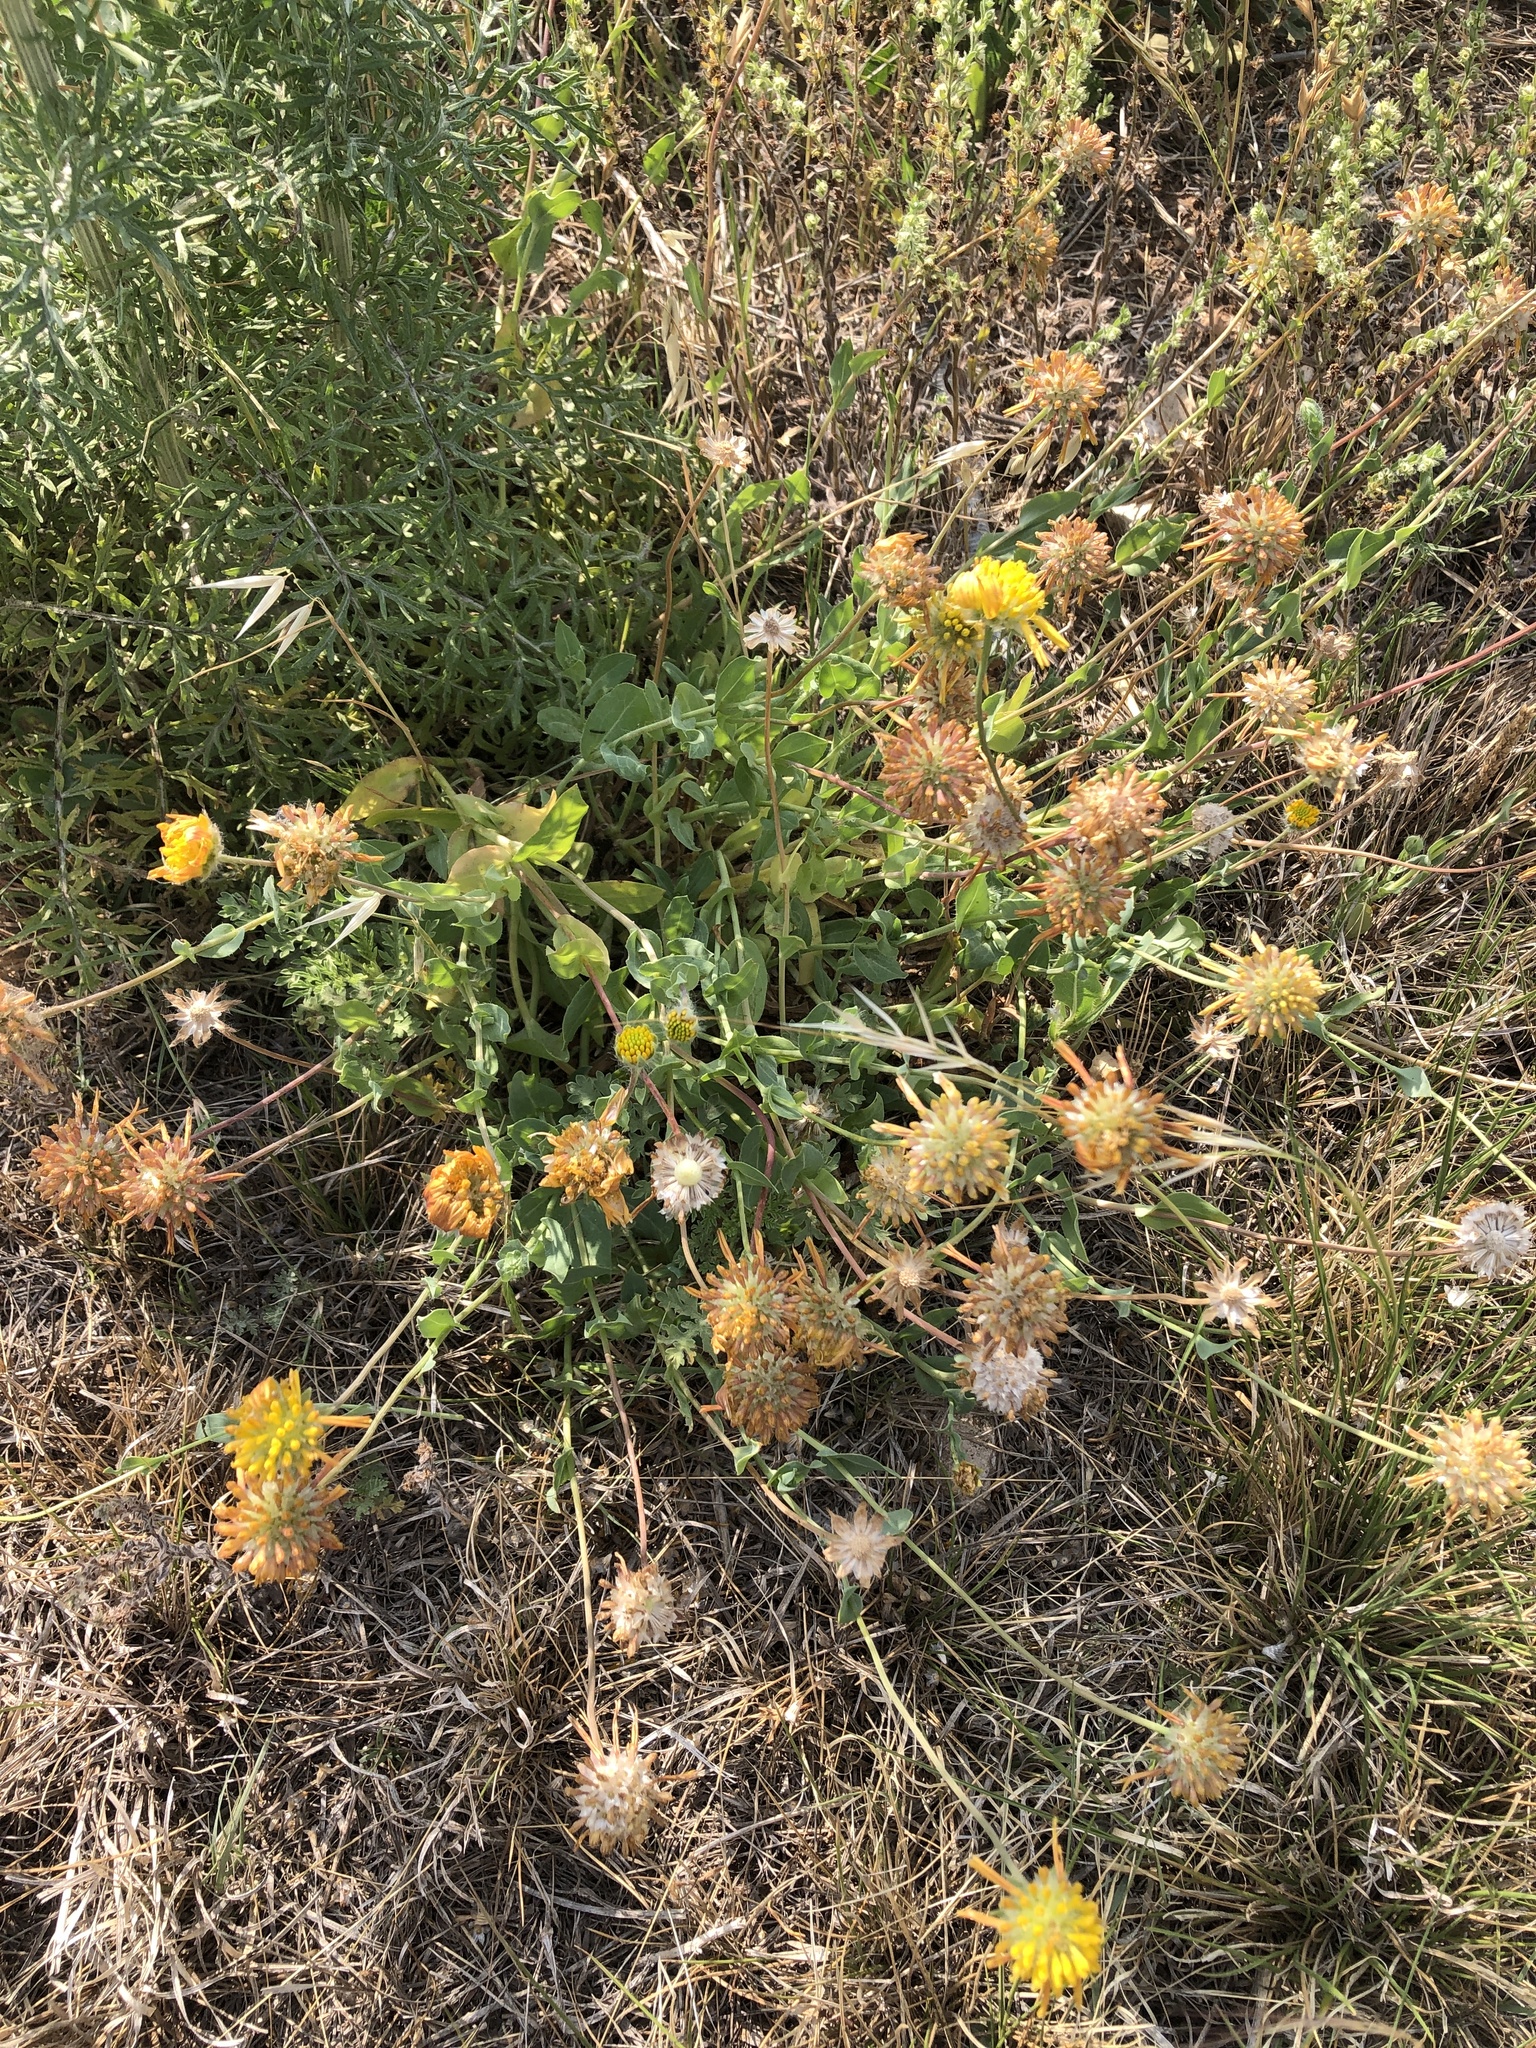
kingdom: Plantae
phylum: Tracheophyta
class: Magnoliopsida
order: Asterales
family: Asteraceae
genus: Amblyolepis
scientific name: Amblyolepis setigera
